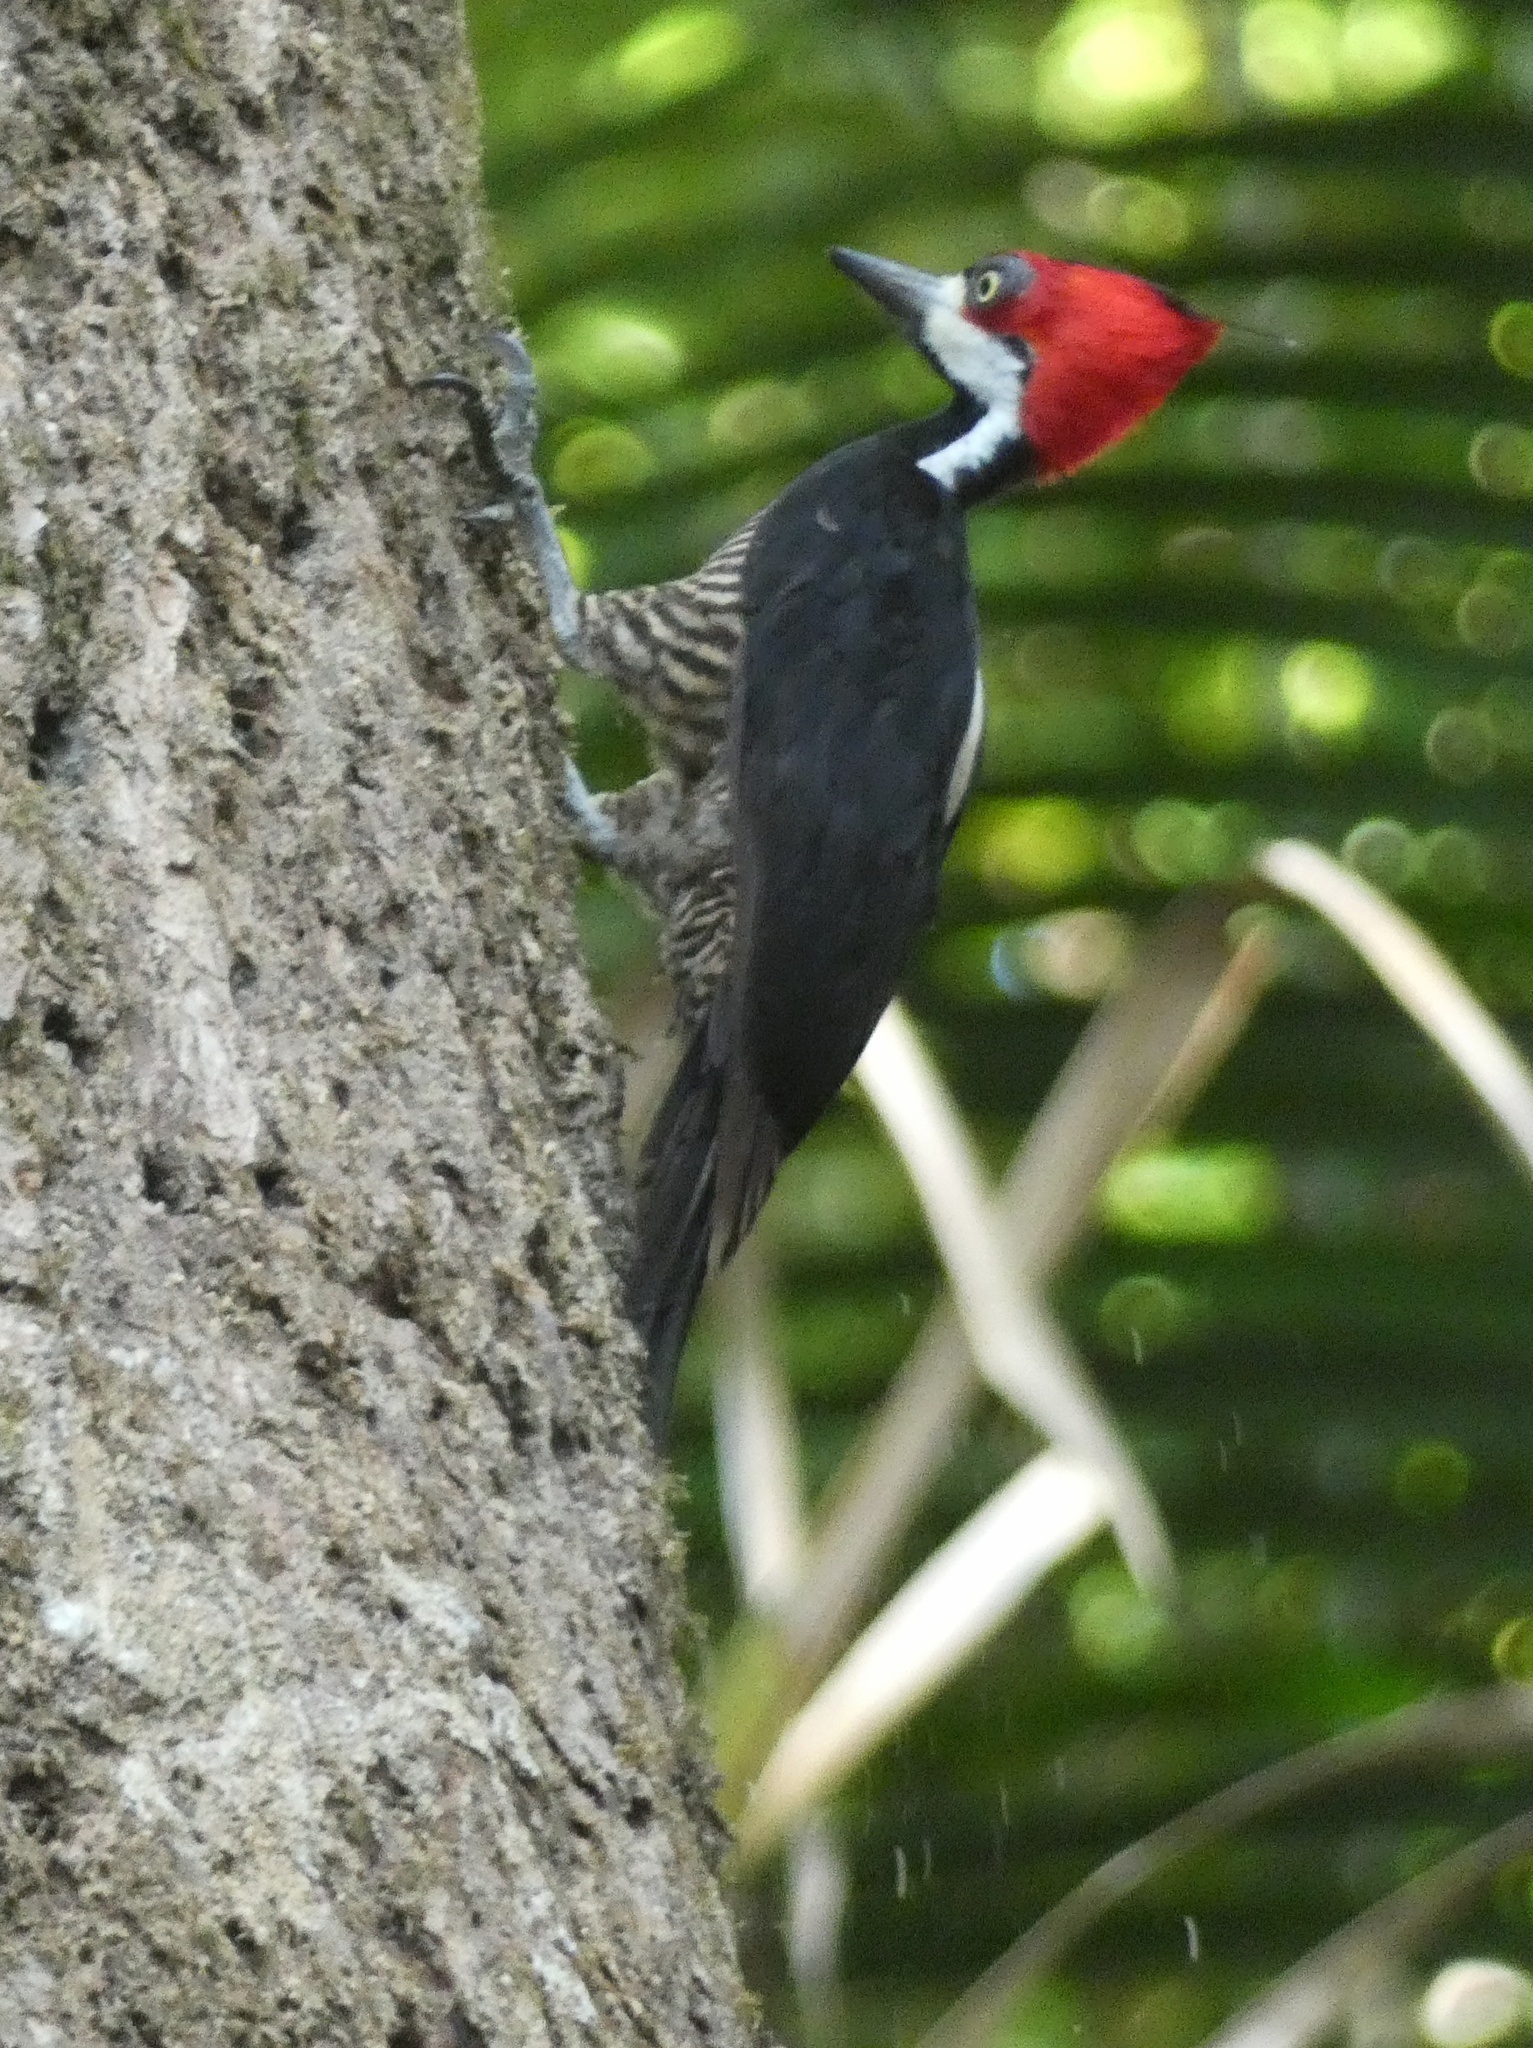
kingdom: Animalia
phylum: Chordata
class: Aves
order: Piciformes
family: Picidae
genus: Campephilus
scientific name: Campephilus melanoleucos
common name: Crimson-crested woodpecker
